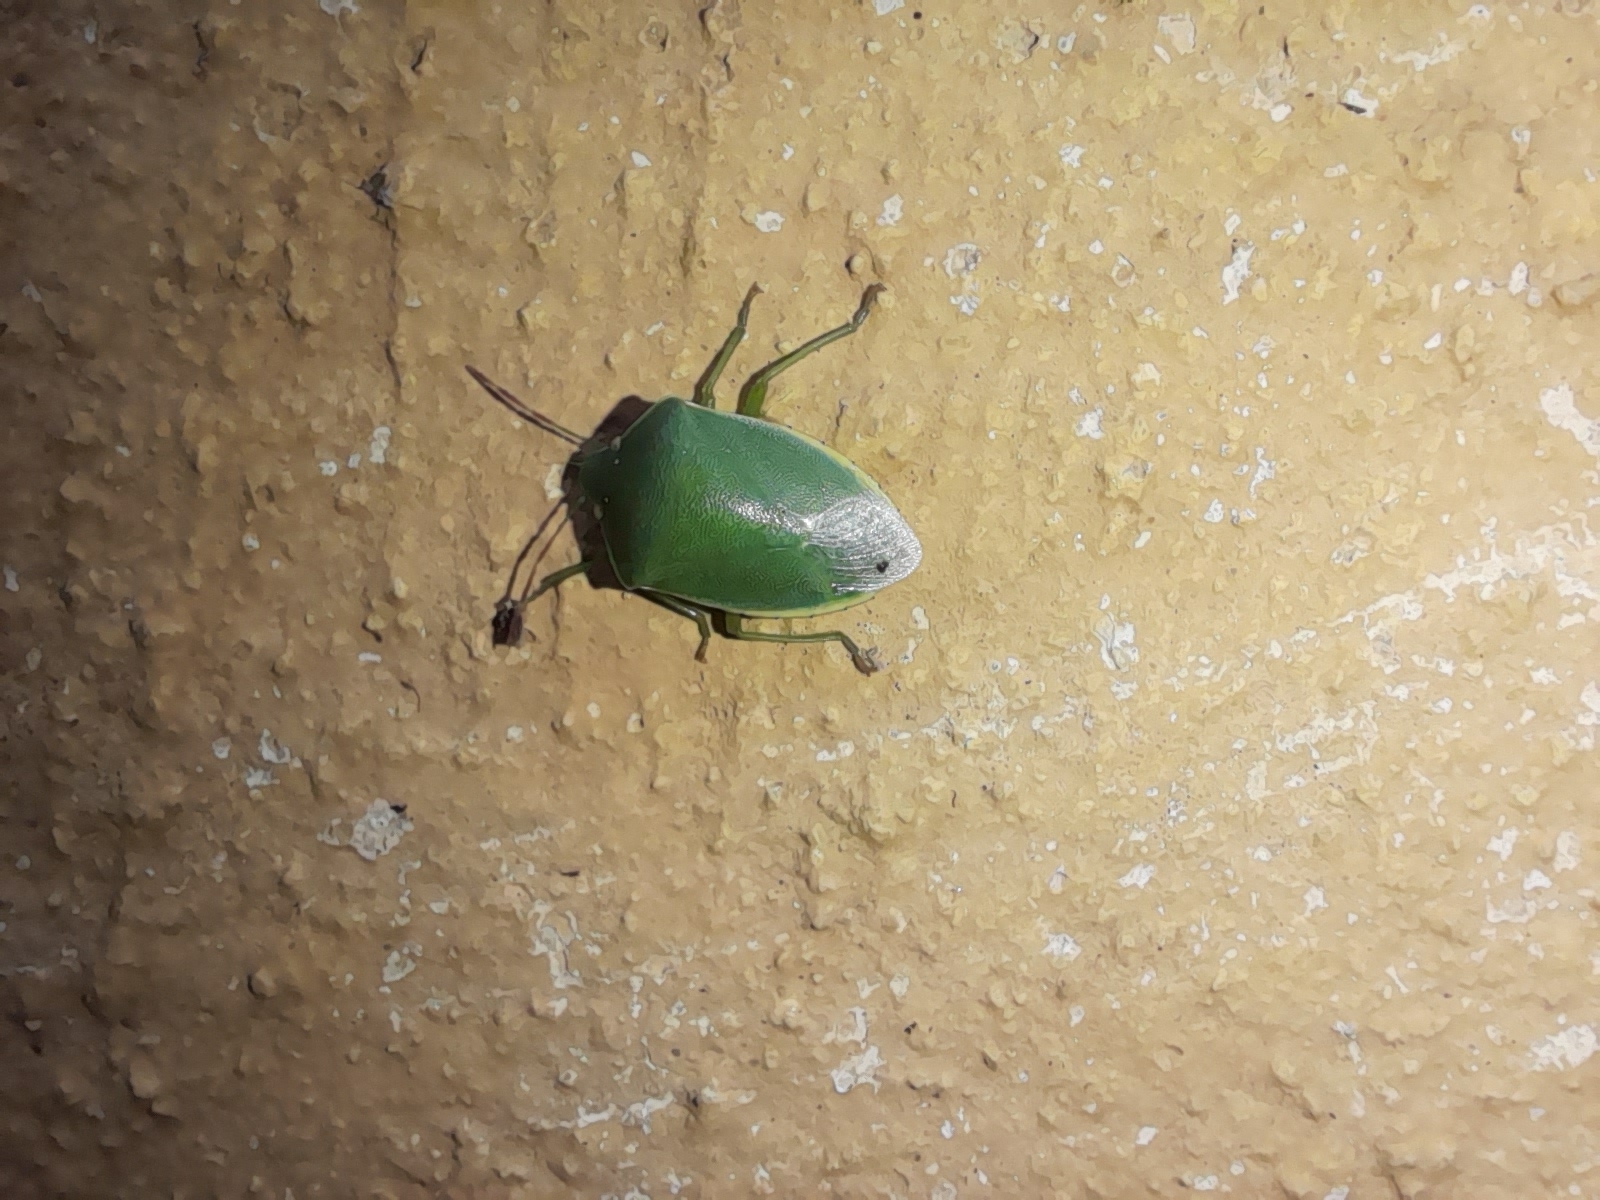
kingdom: Animalia
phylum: Arthropoda
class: Insecta
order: Hemiptera
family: Pentatomidae
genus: Acrosternum
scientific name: Acrosternum heegeri
